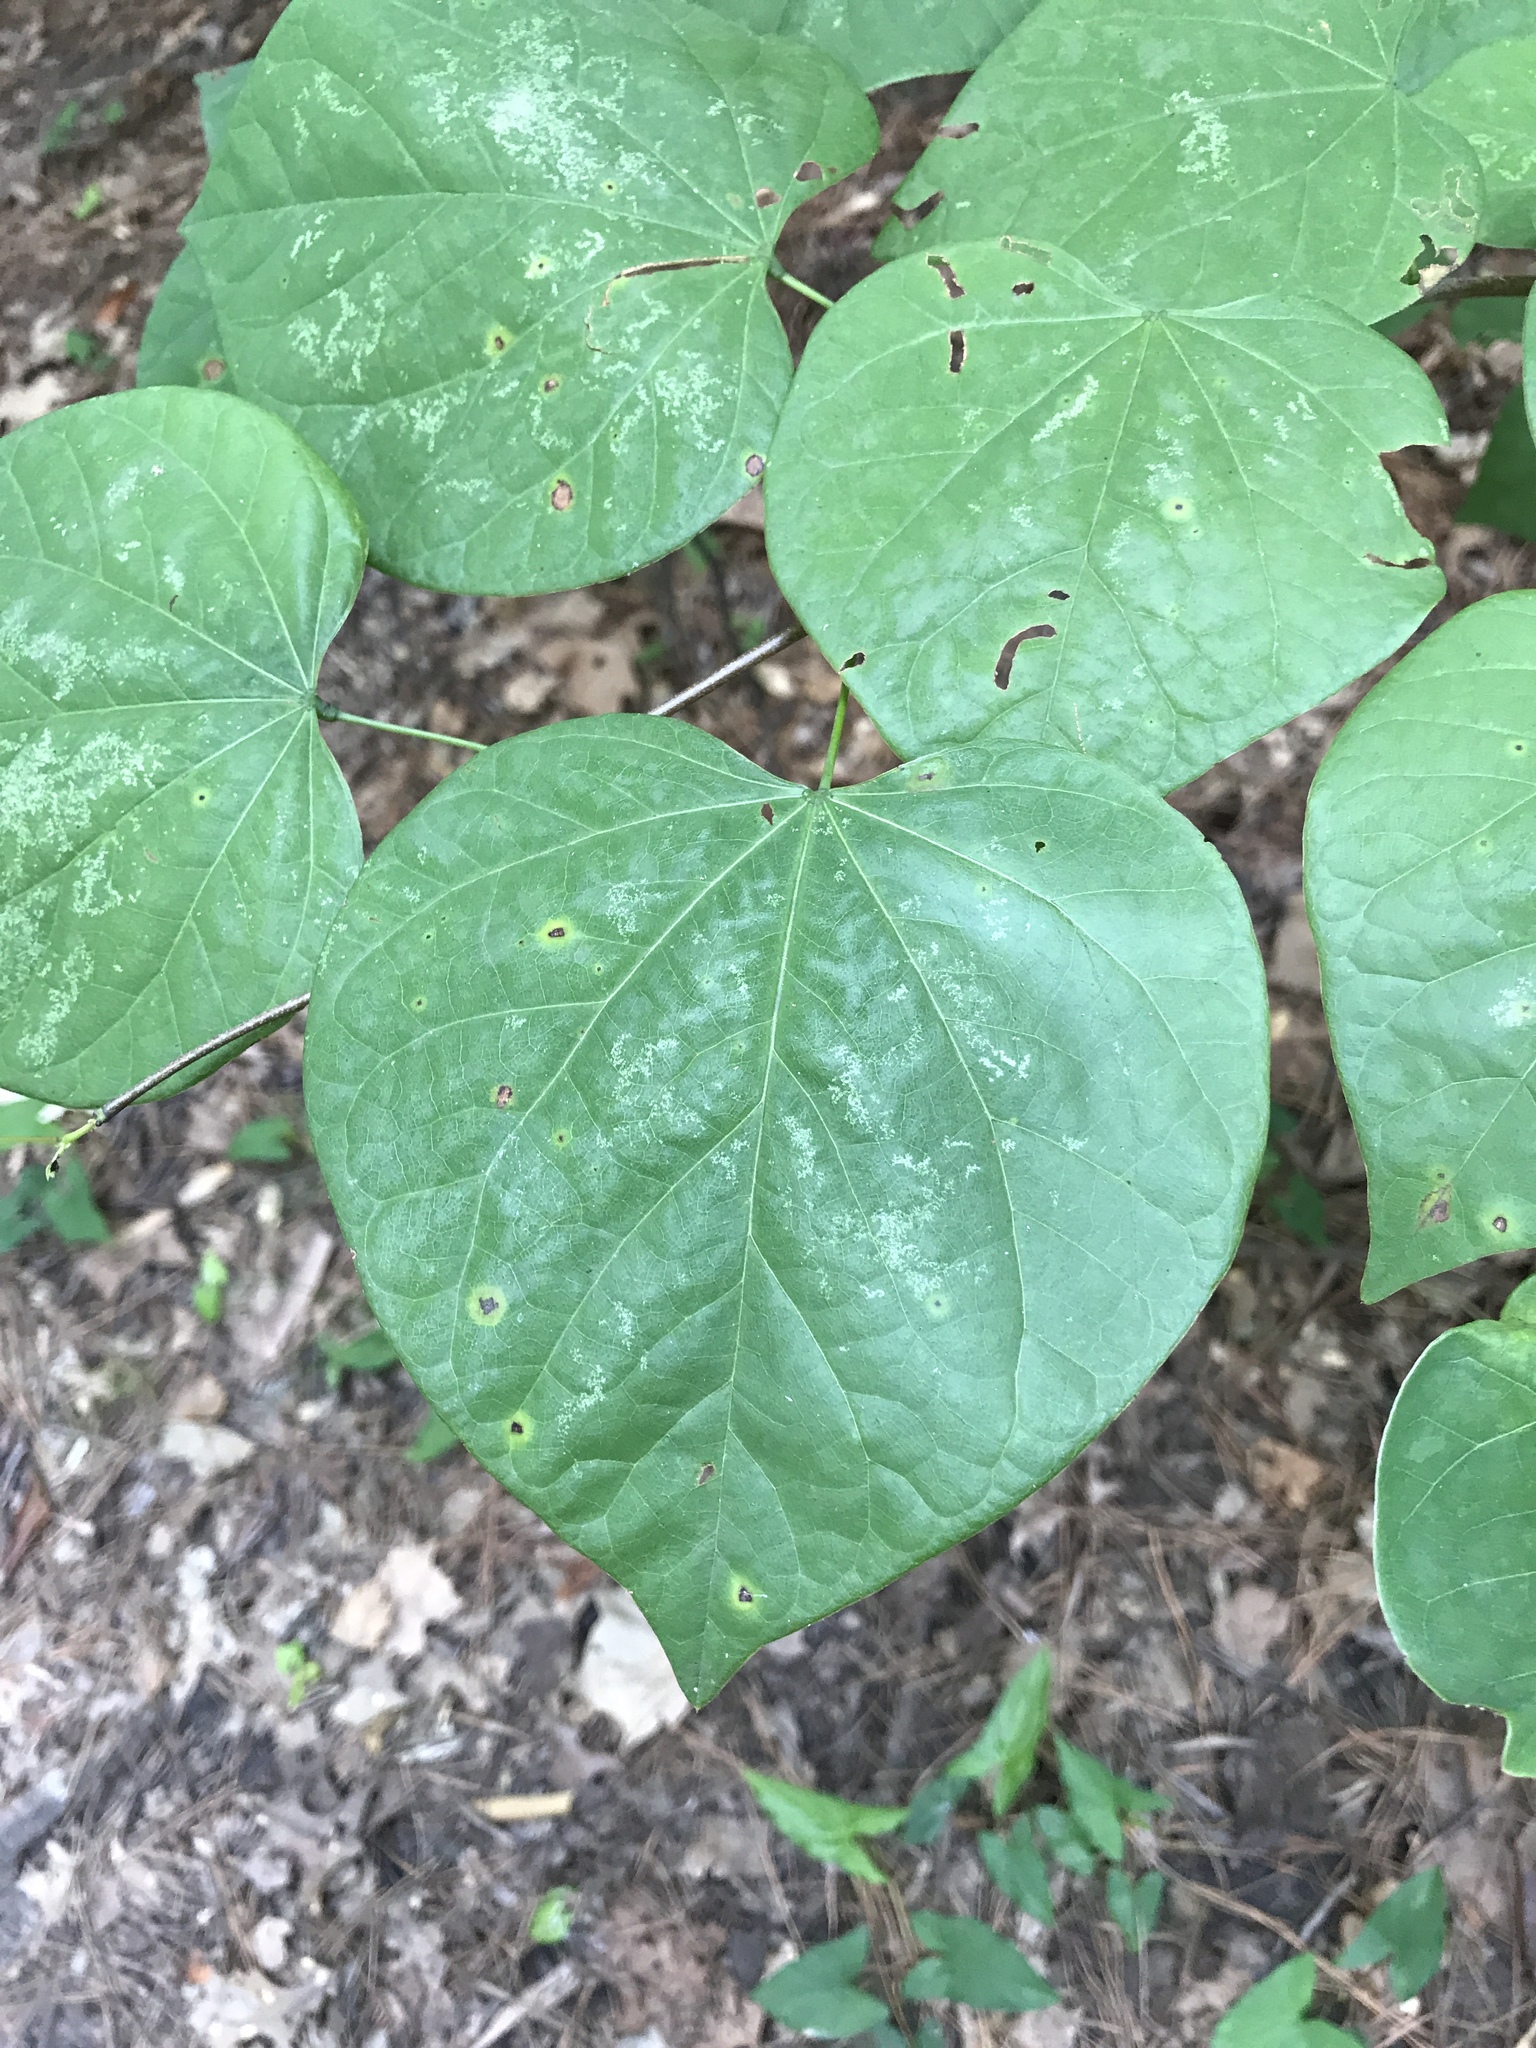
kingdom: Plantae
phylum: Tracheophyta
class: Magnoliopsida
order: Fabales
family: Fabaceae
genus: Cercis
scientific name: Cercis canadensis
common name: Eastern redbud
